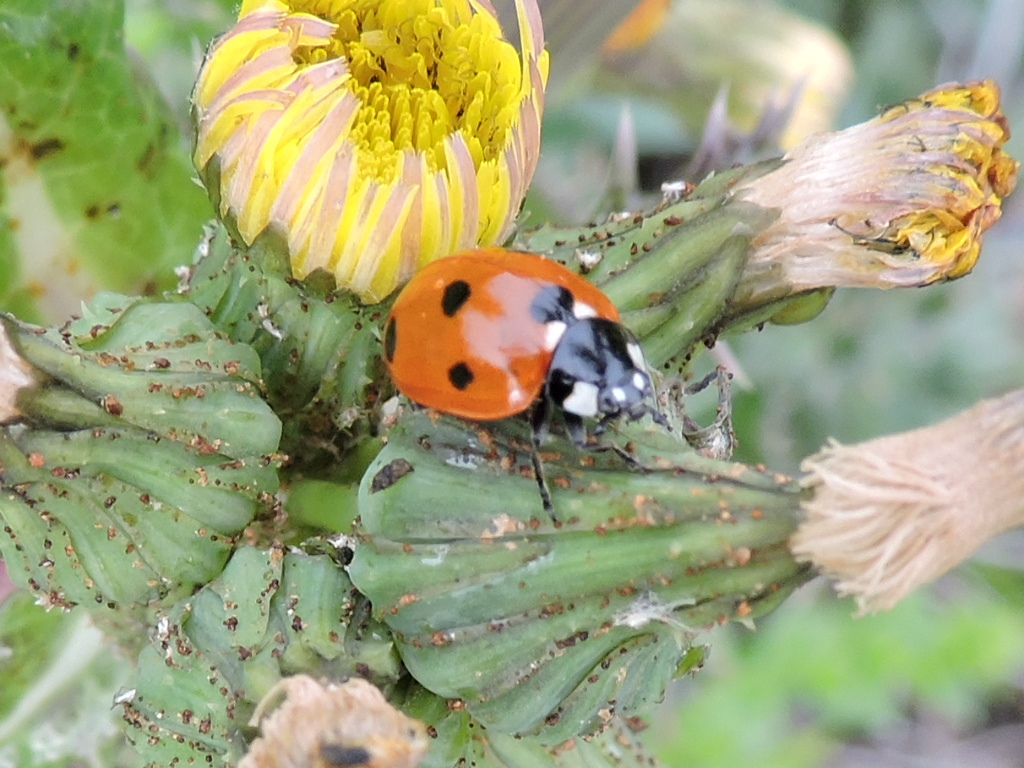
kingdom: Animalia
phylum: Arthropoda
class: Insecta
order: Coleoptera
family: Coccinellidae
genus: Coccinella
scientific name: Coccinella septempunctata
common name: Sevenspotted lady beetle
